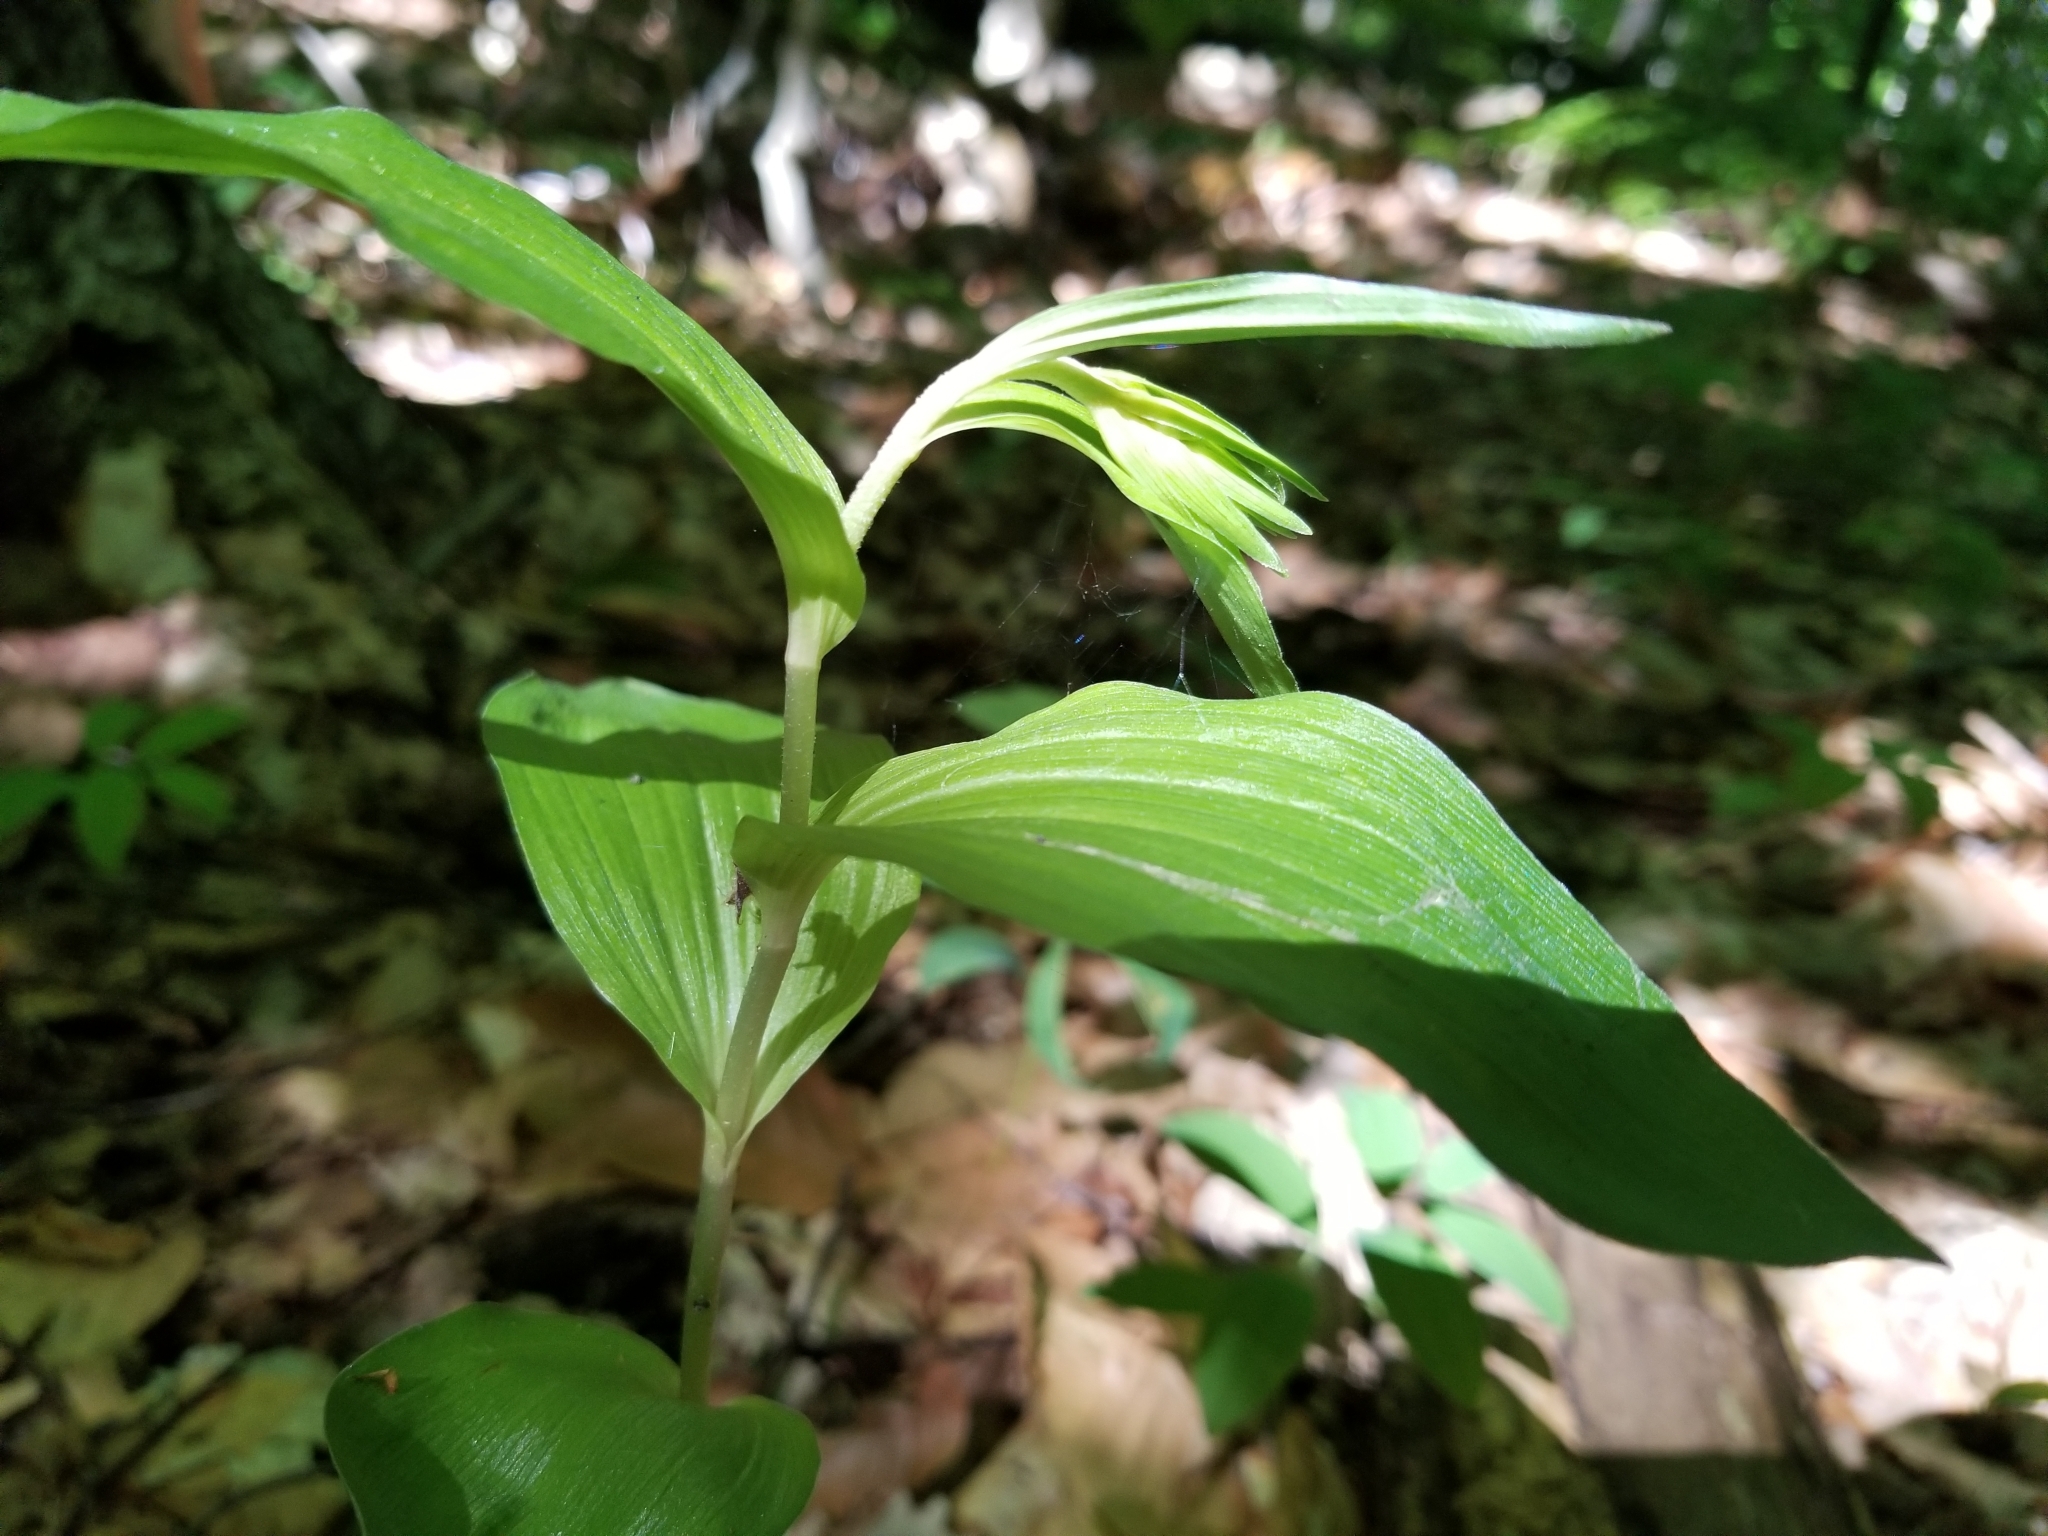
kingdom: Plantae
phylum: Tracheophyta
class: Liliopsida
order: Asparagales
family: Orchidaceae
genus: Epipactis
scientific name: Epipactis helleborine
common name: Broad-leaved helleborine
